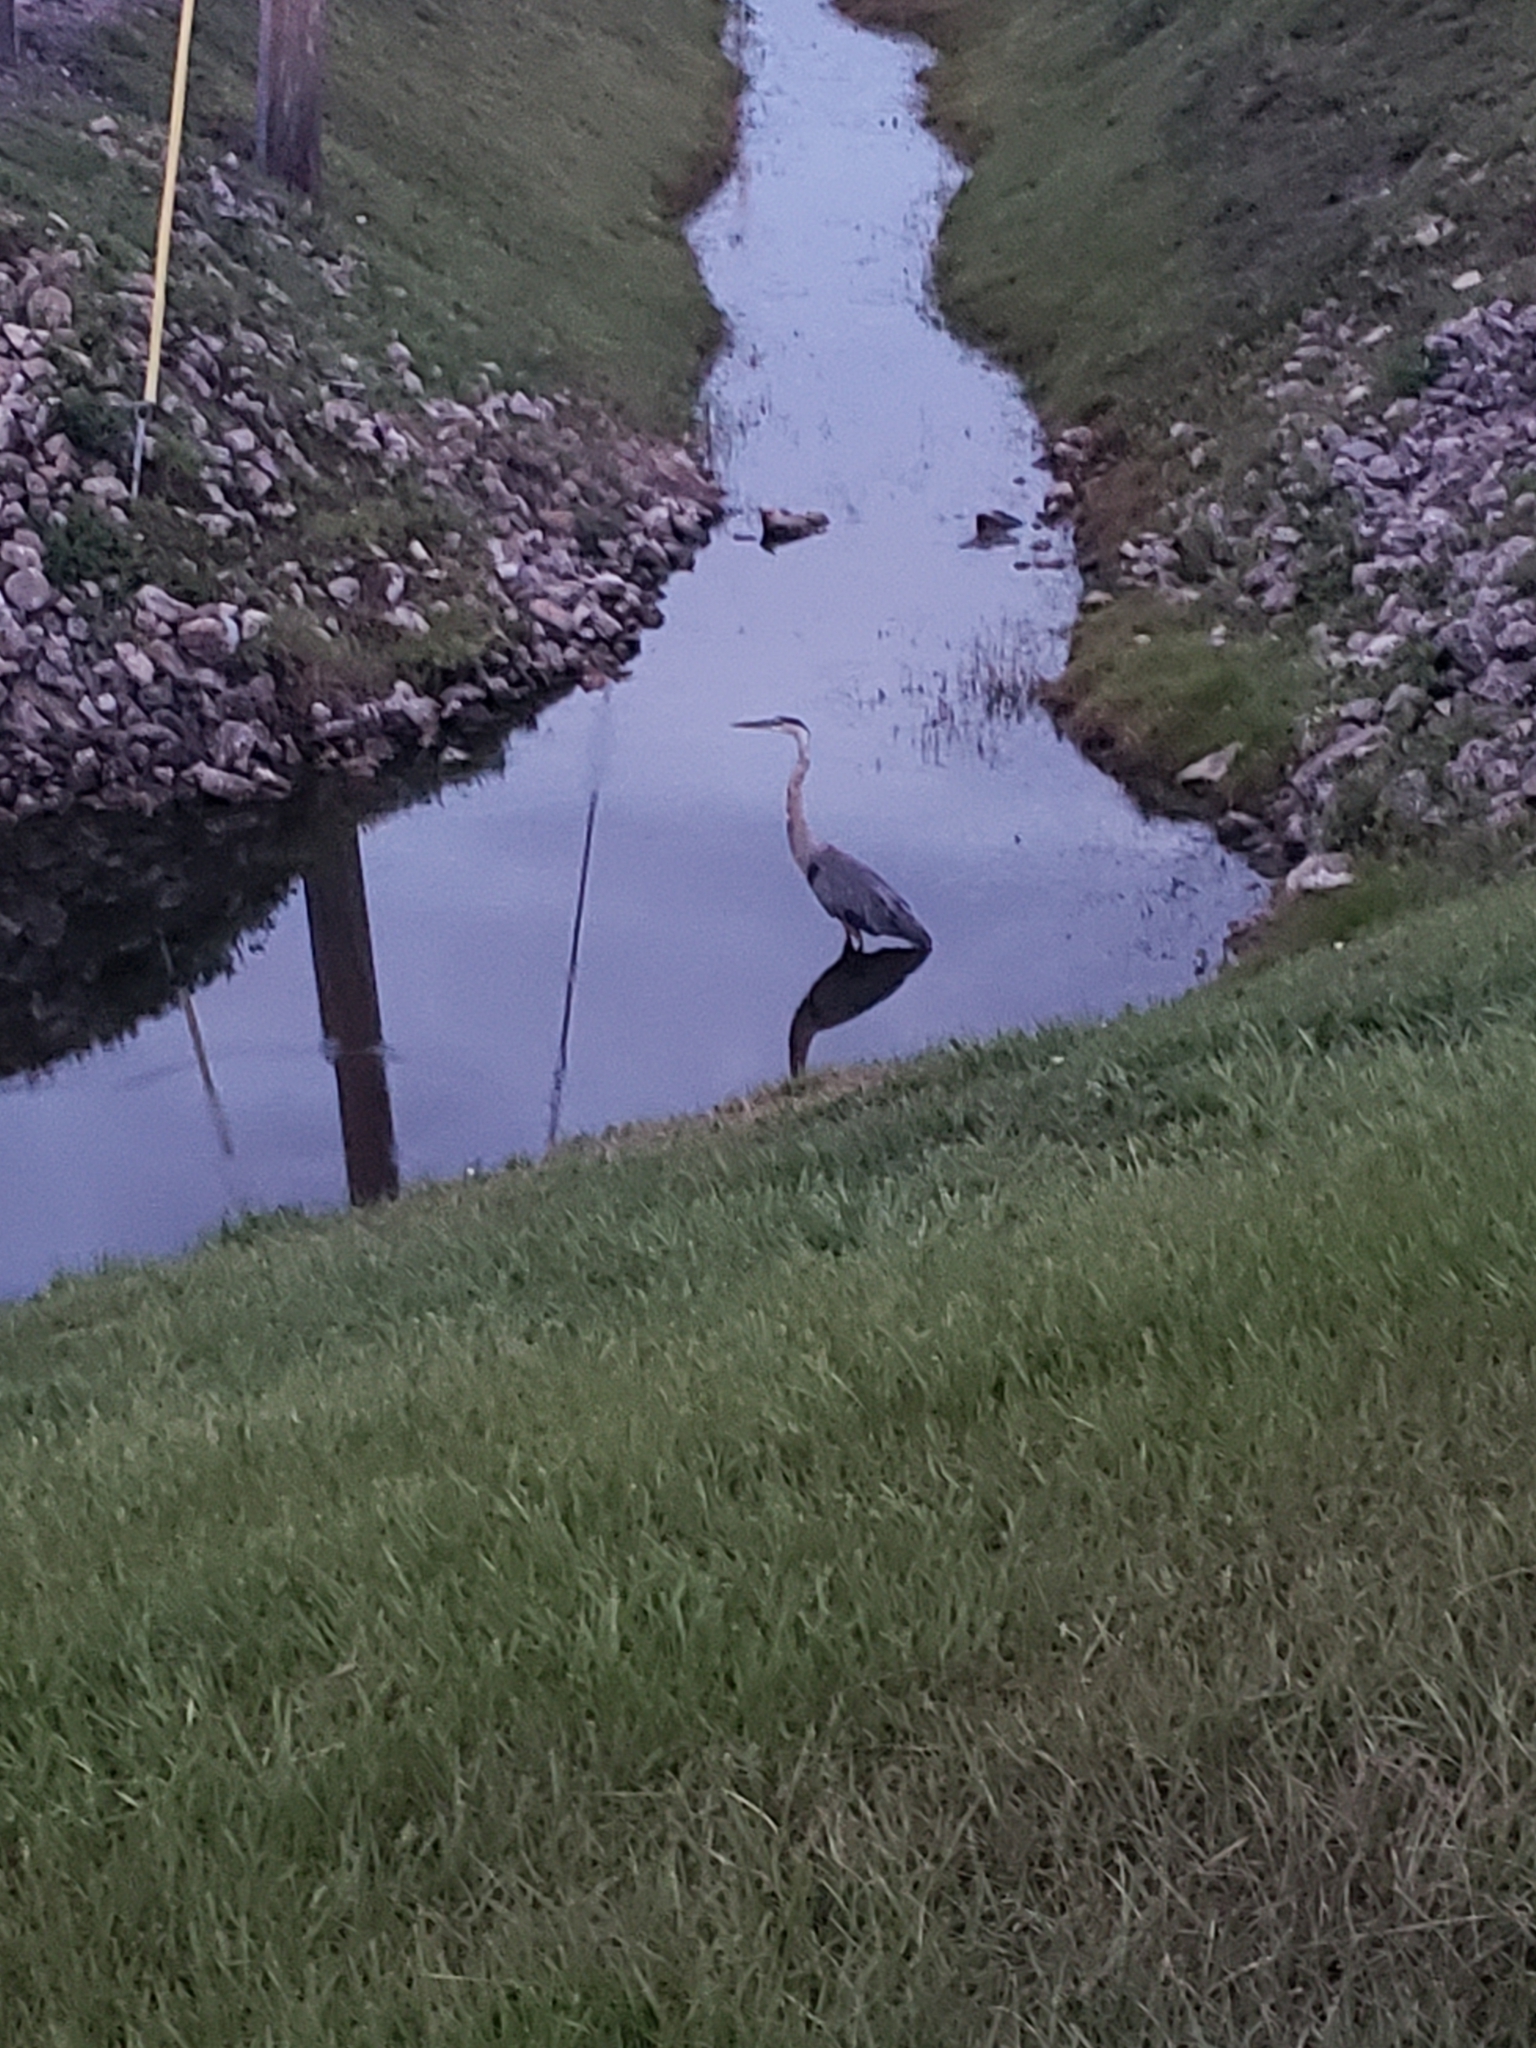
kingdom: Animalia
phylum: Chordata
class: Aves
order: Pelecaniformes
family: Ardeidae
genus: Ardea
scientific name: Ardea herodias
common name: Great blue heron
